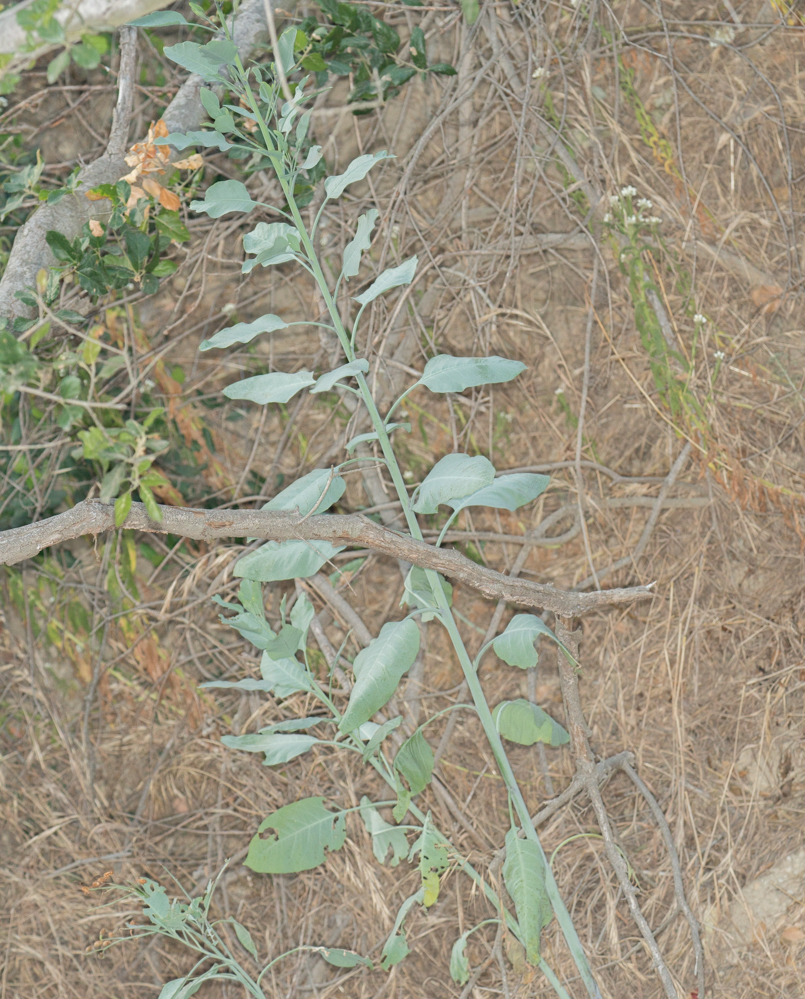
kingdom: Plantae
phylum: Tracheophyta
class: Magnoliopsida
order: Solanales
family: Solanaceae
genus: Nicotiana
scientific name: Nicotiana glauca
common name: Tree tobacco
